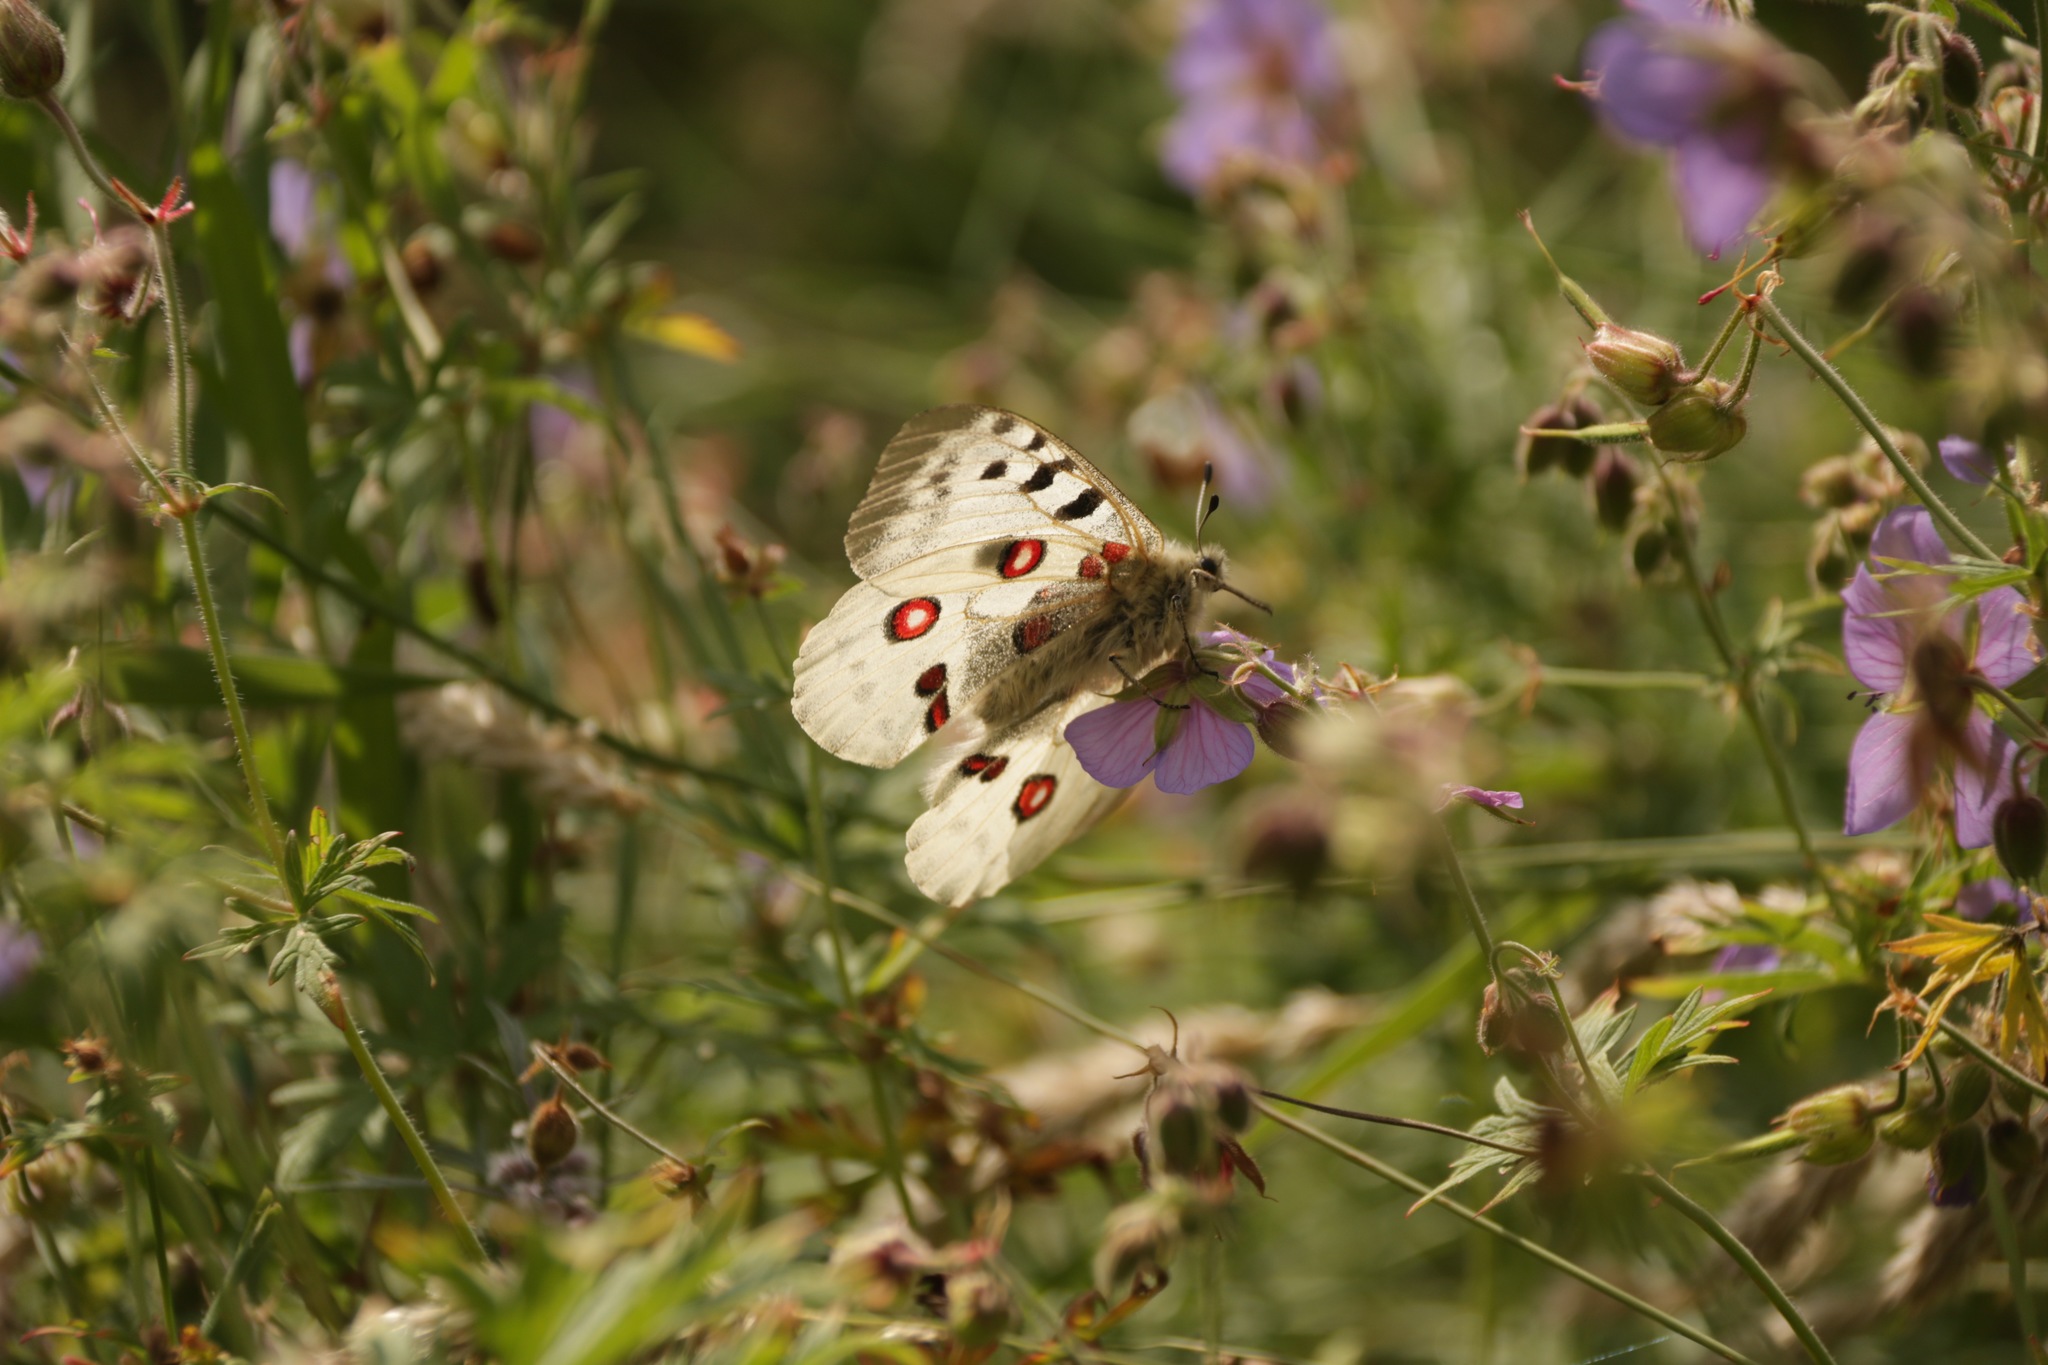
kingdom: Animalia
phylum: Arthropoda
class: Insecta
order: Lepidoptera
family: Papilionidae
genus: Parnassius
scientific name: Parnassius apollo
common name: Apollo
